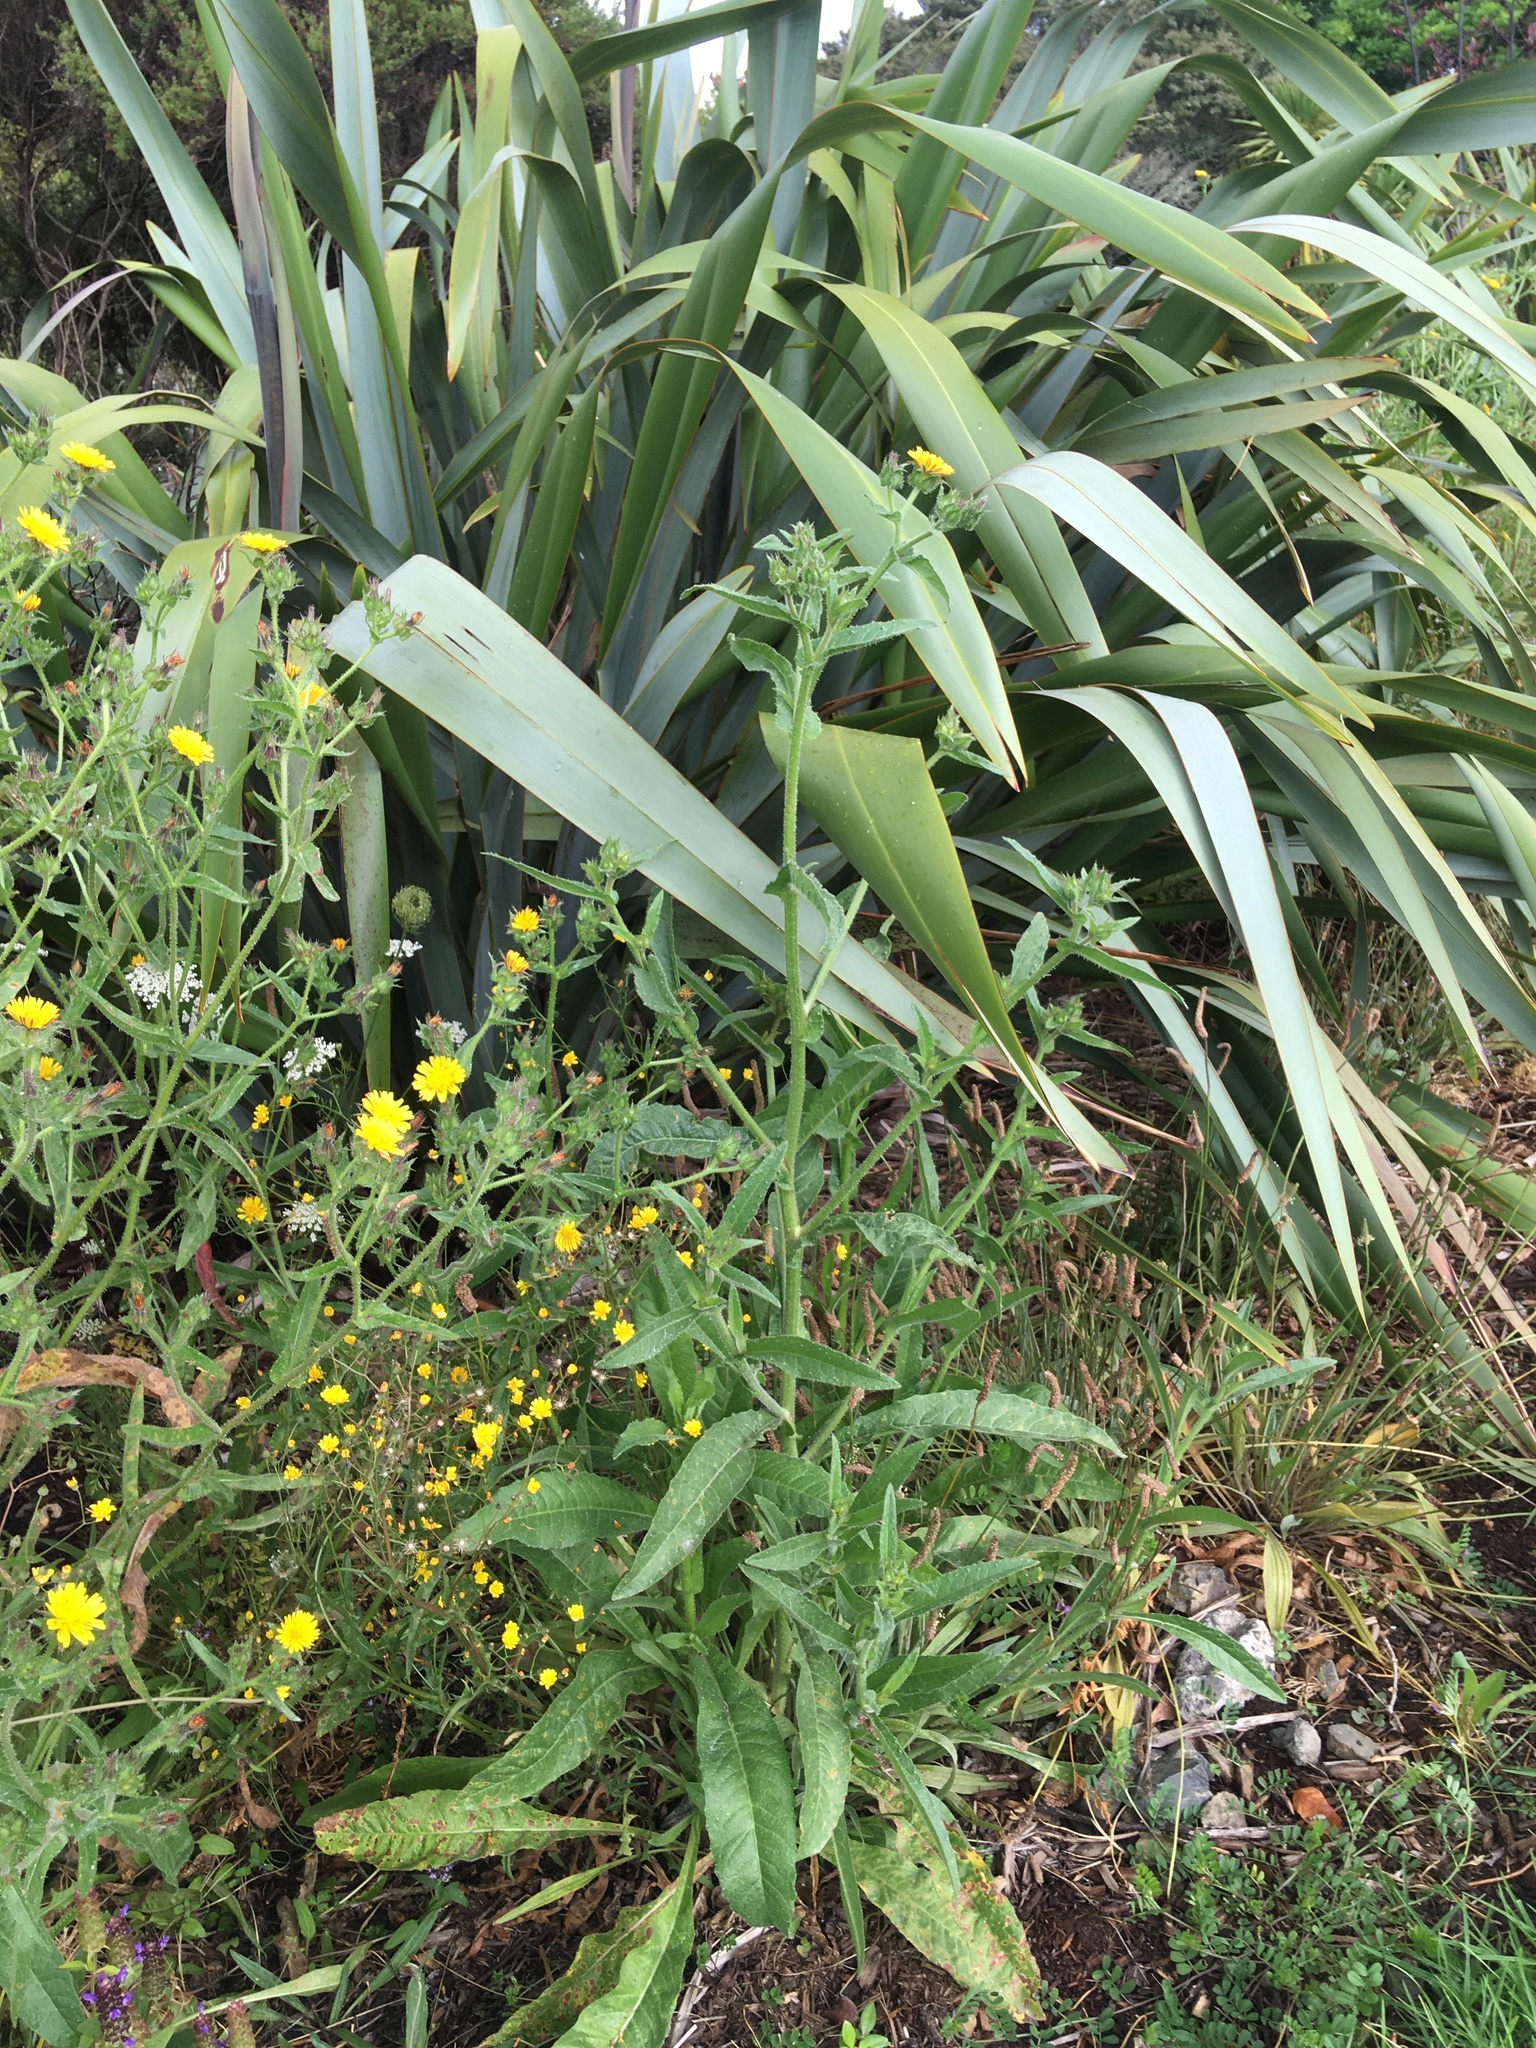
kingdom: Plantae
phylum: Tracheophyta
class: Magnoliopsida
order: Asterales
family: Asteraceae
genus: Helminthotheca
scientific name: Helminthotheca echioides
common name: Ox-tongue
